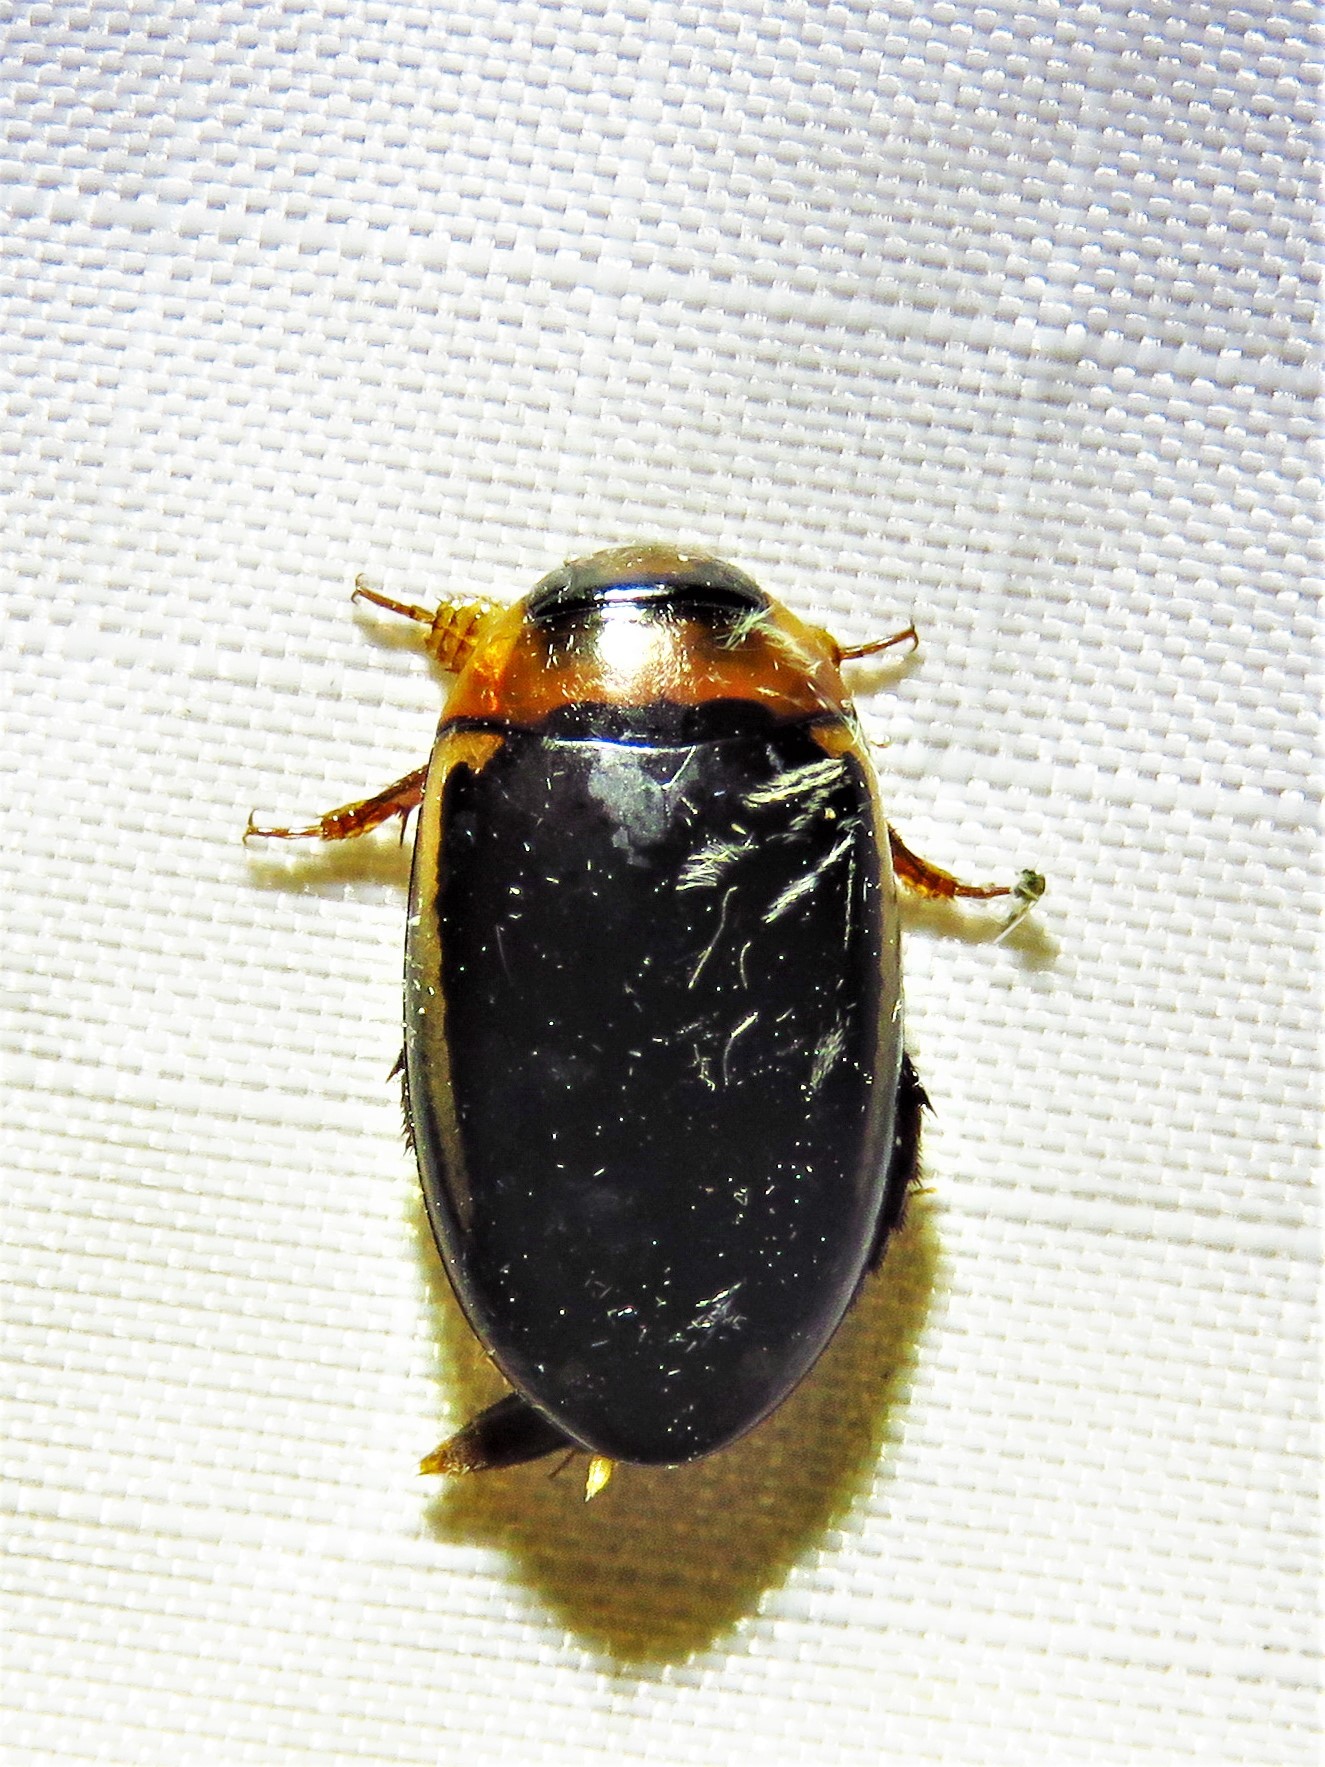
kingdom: Animalia
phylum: Arthropoda
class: Insecta
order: Coleoptera
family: Dytiscidae
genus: Hydaticus
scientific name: Hydaticus bimarginatus
